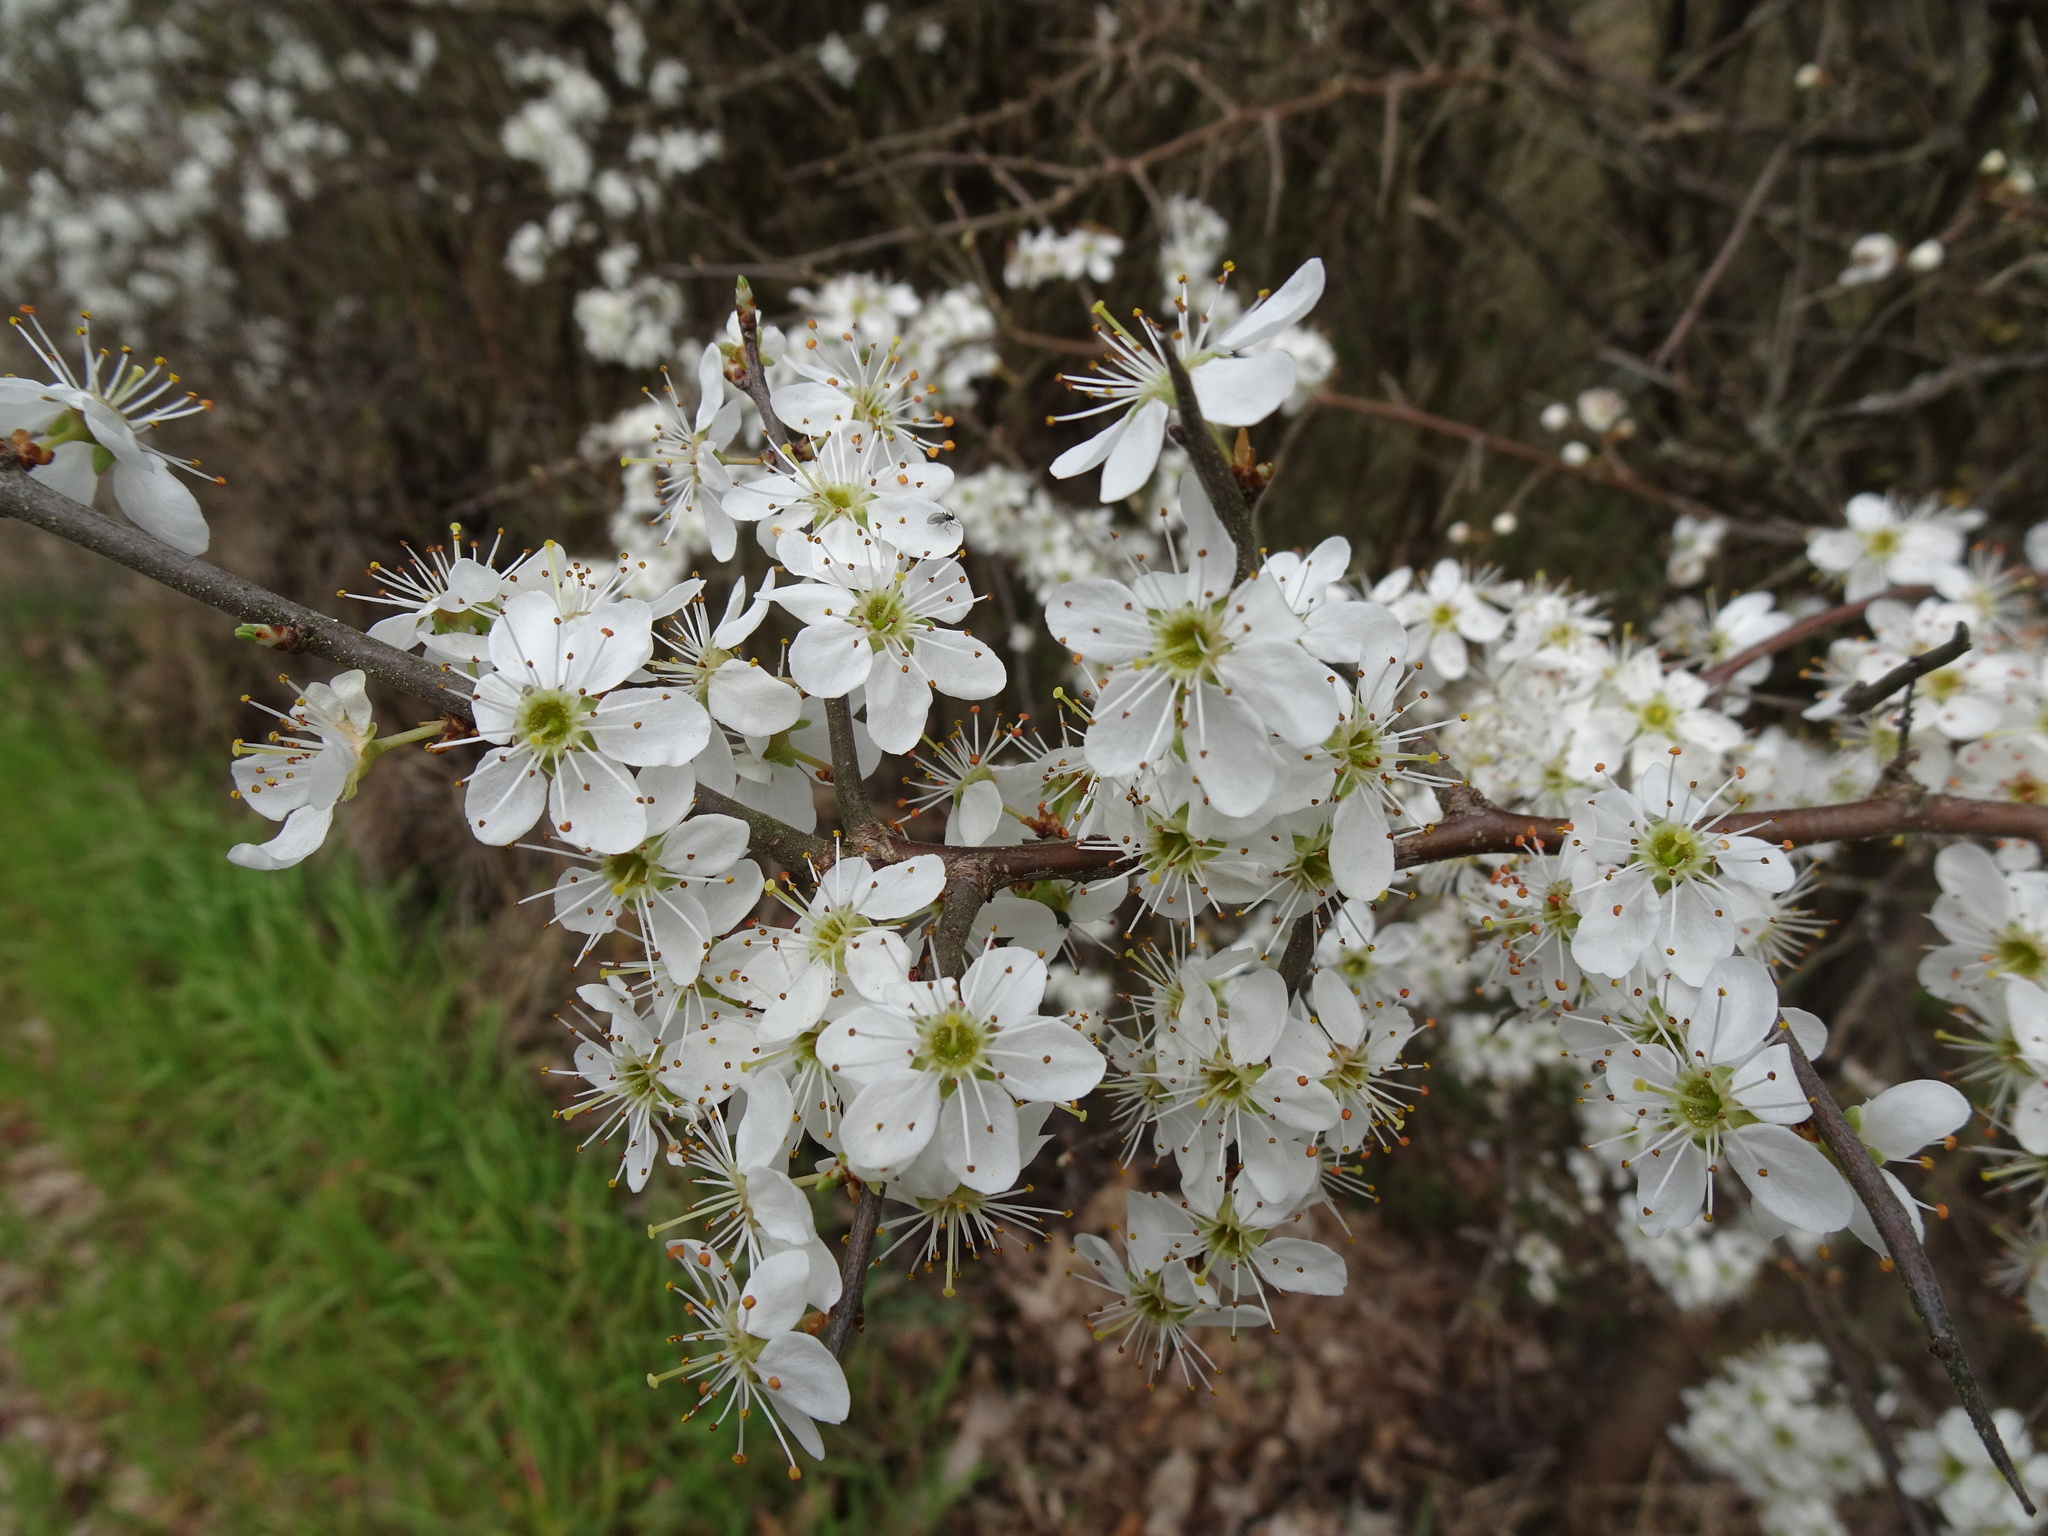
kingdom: Plantae
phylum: Tracheophyta
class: Magnoliopsida
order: Rosales
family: Rosaceae
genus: Prunus
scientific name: Prunus spinosa
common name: Blackthorn
